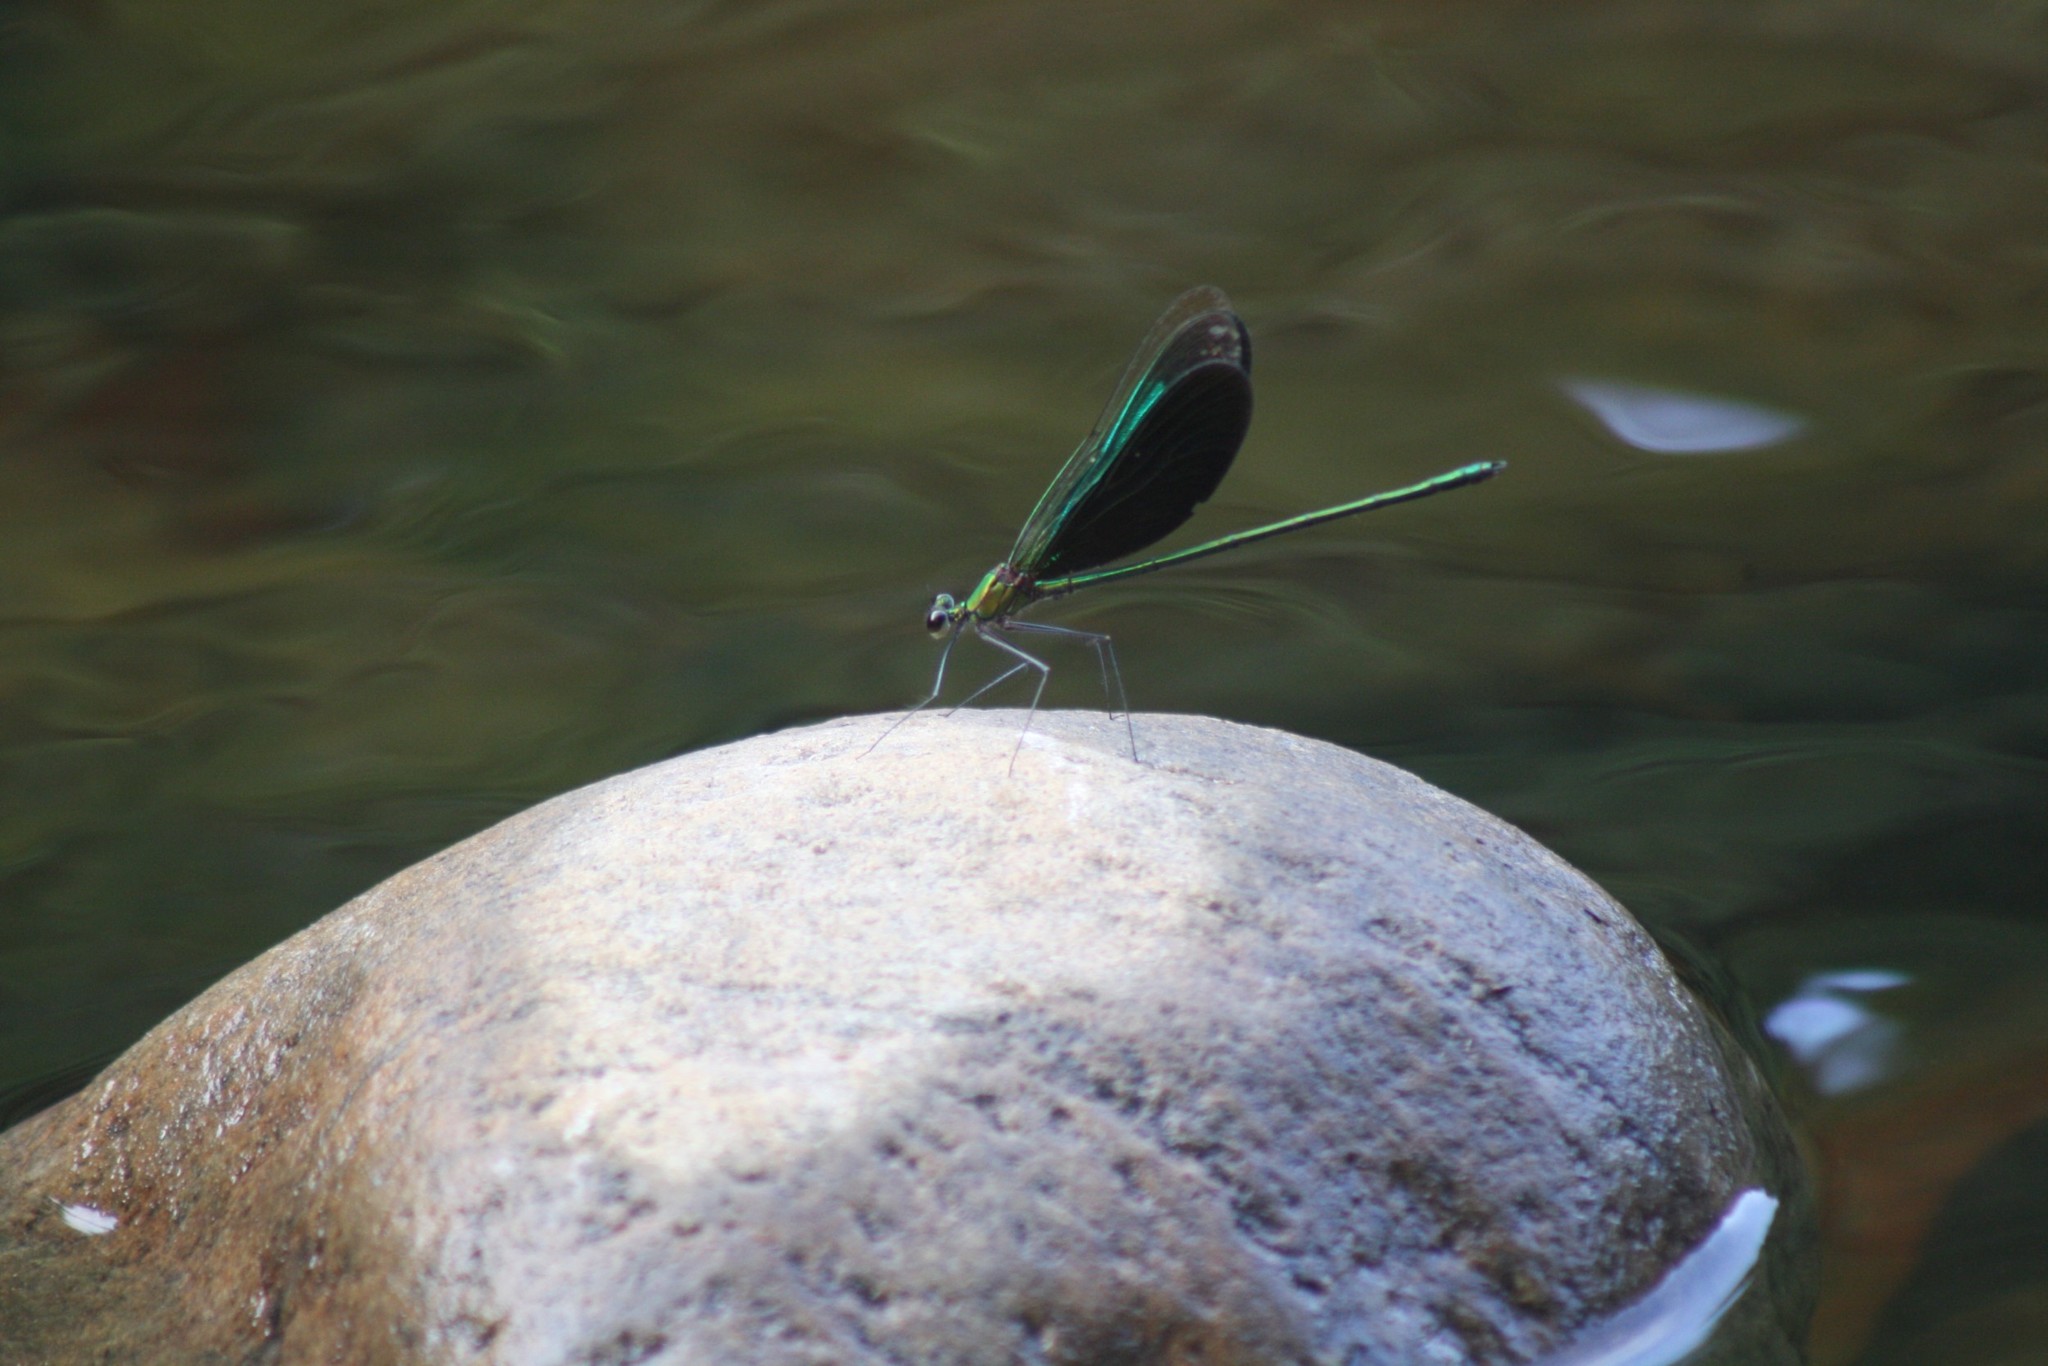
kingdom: Animalia
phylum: Arthropoda
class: Insecta
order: Odonata
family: Calopterygidae
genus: Neurobasis
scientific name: Neurobasis chinensis
